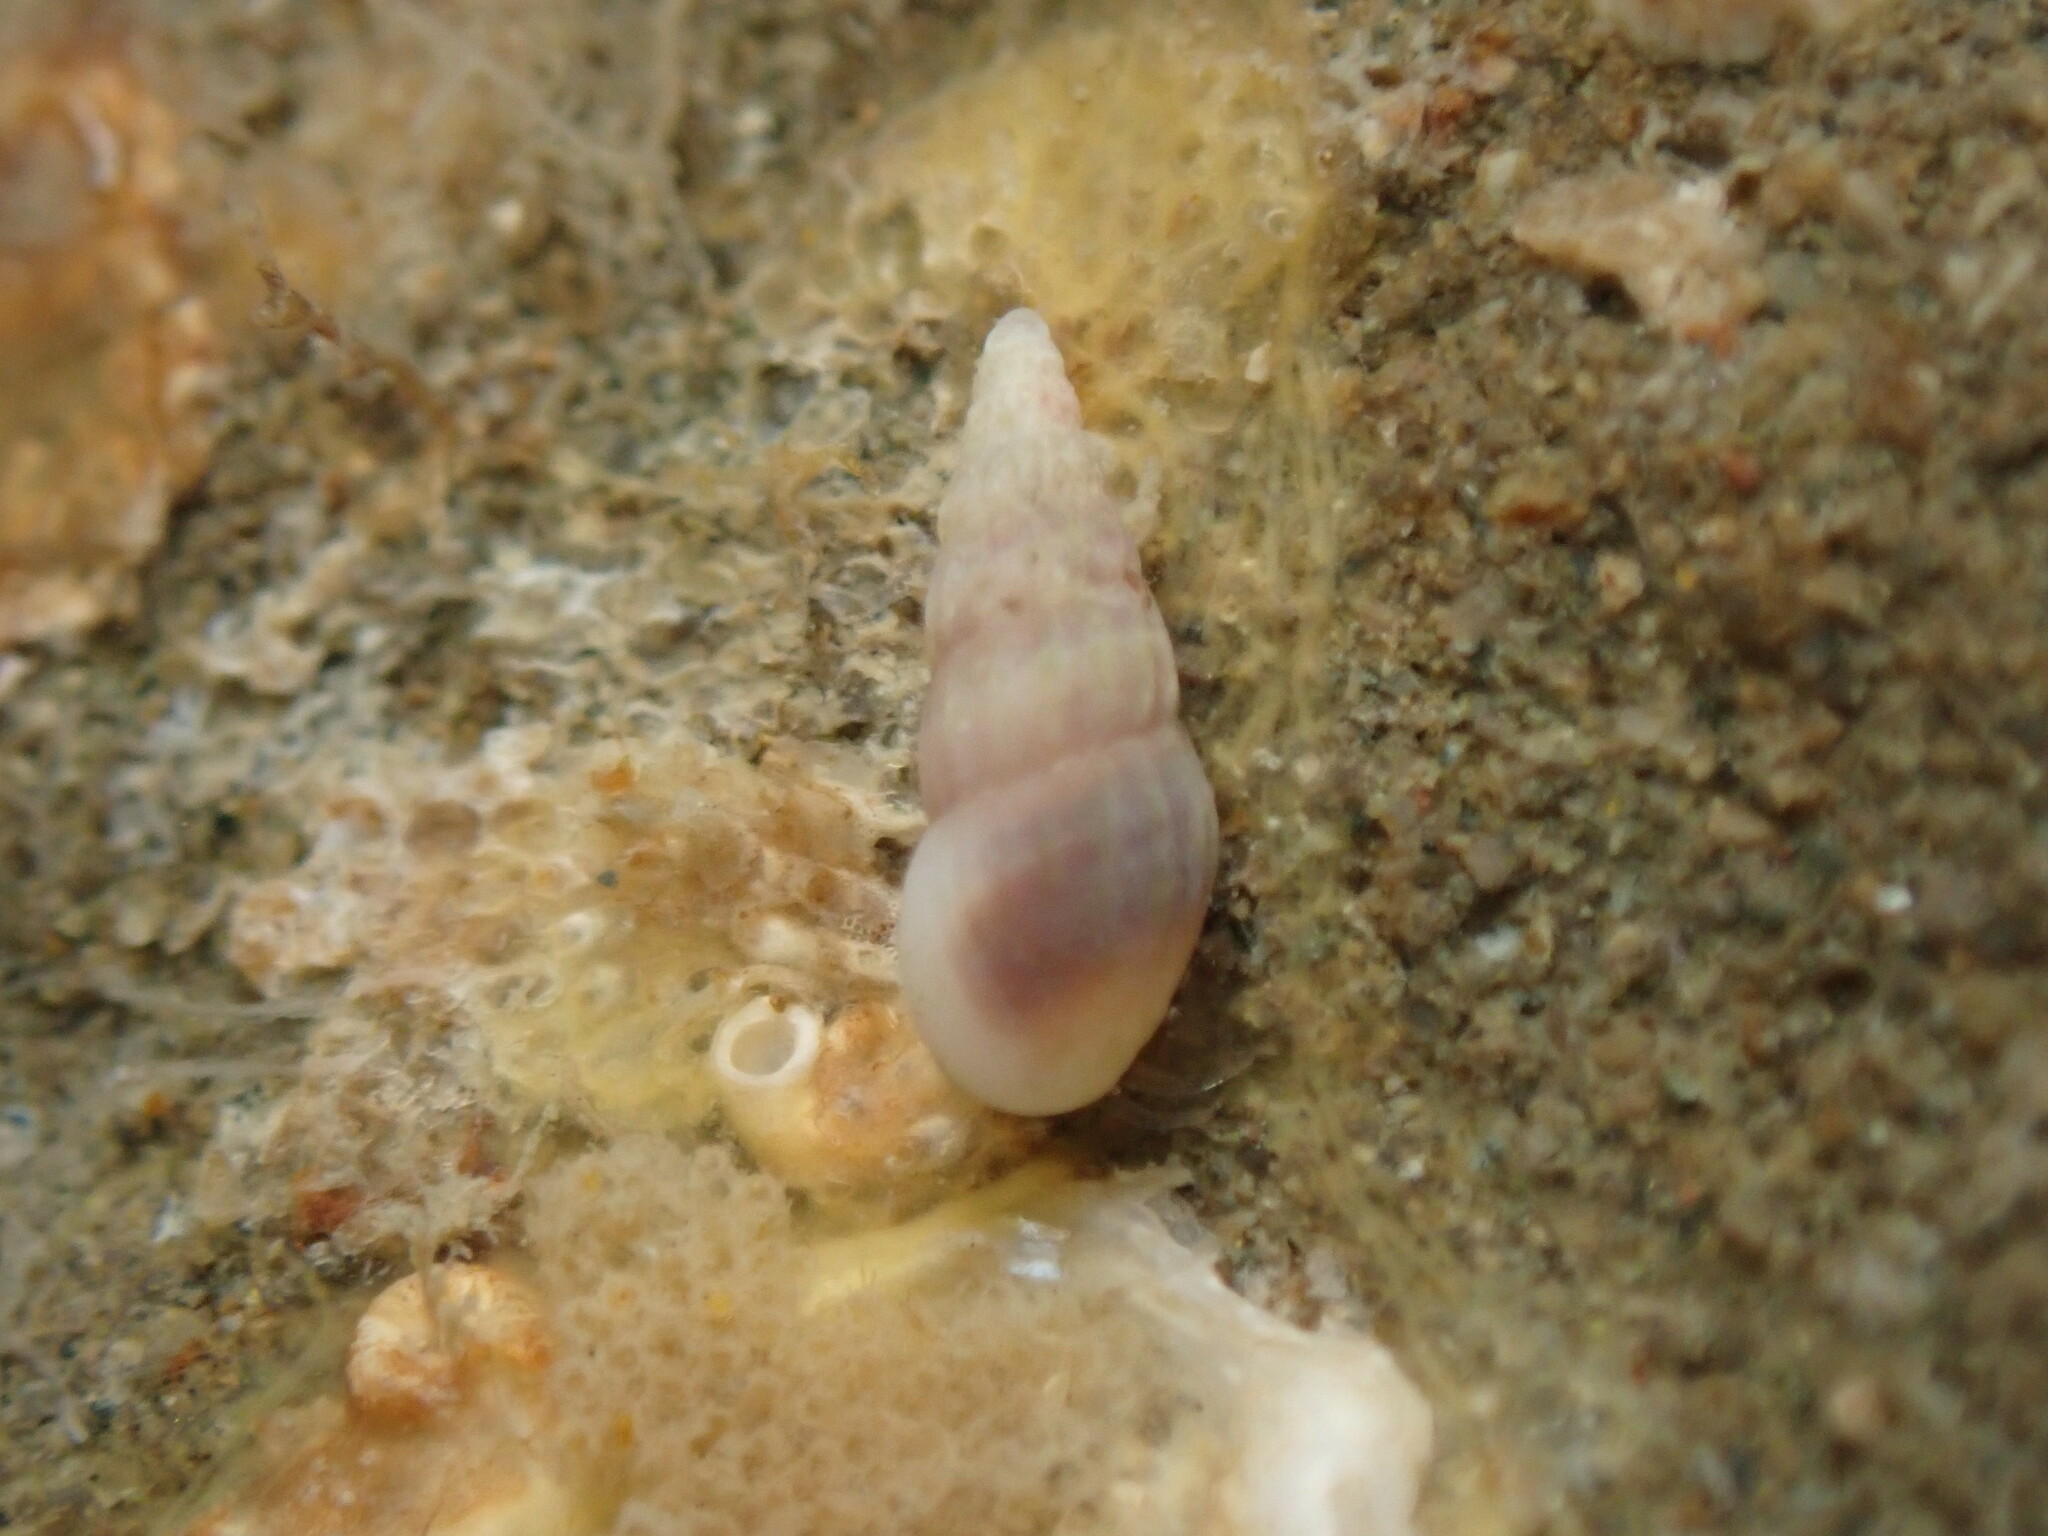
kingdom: Animalia
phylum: Mollusca
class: Gastropoda
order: Littorinimorpha
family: Rissoinidae
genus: Rissoina
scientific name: Rissoina chathamensis
